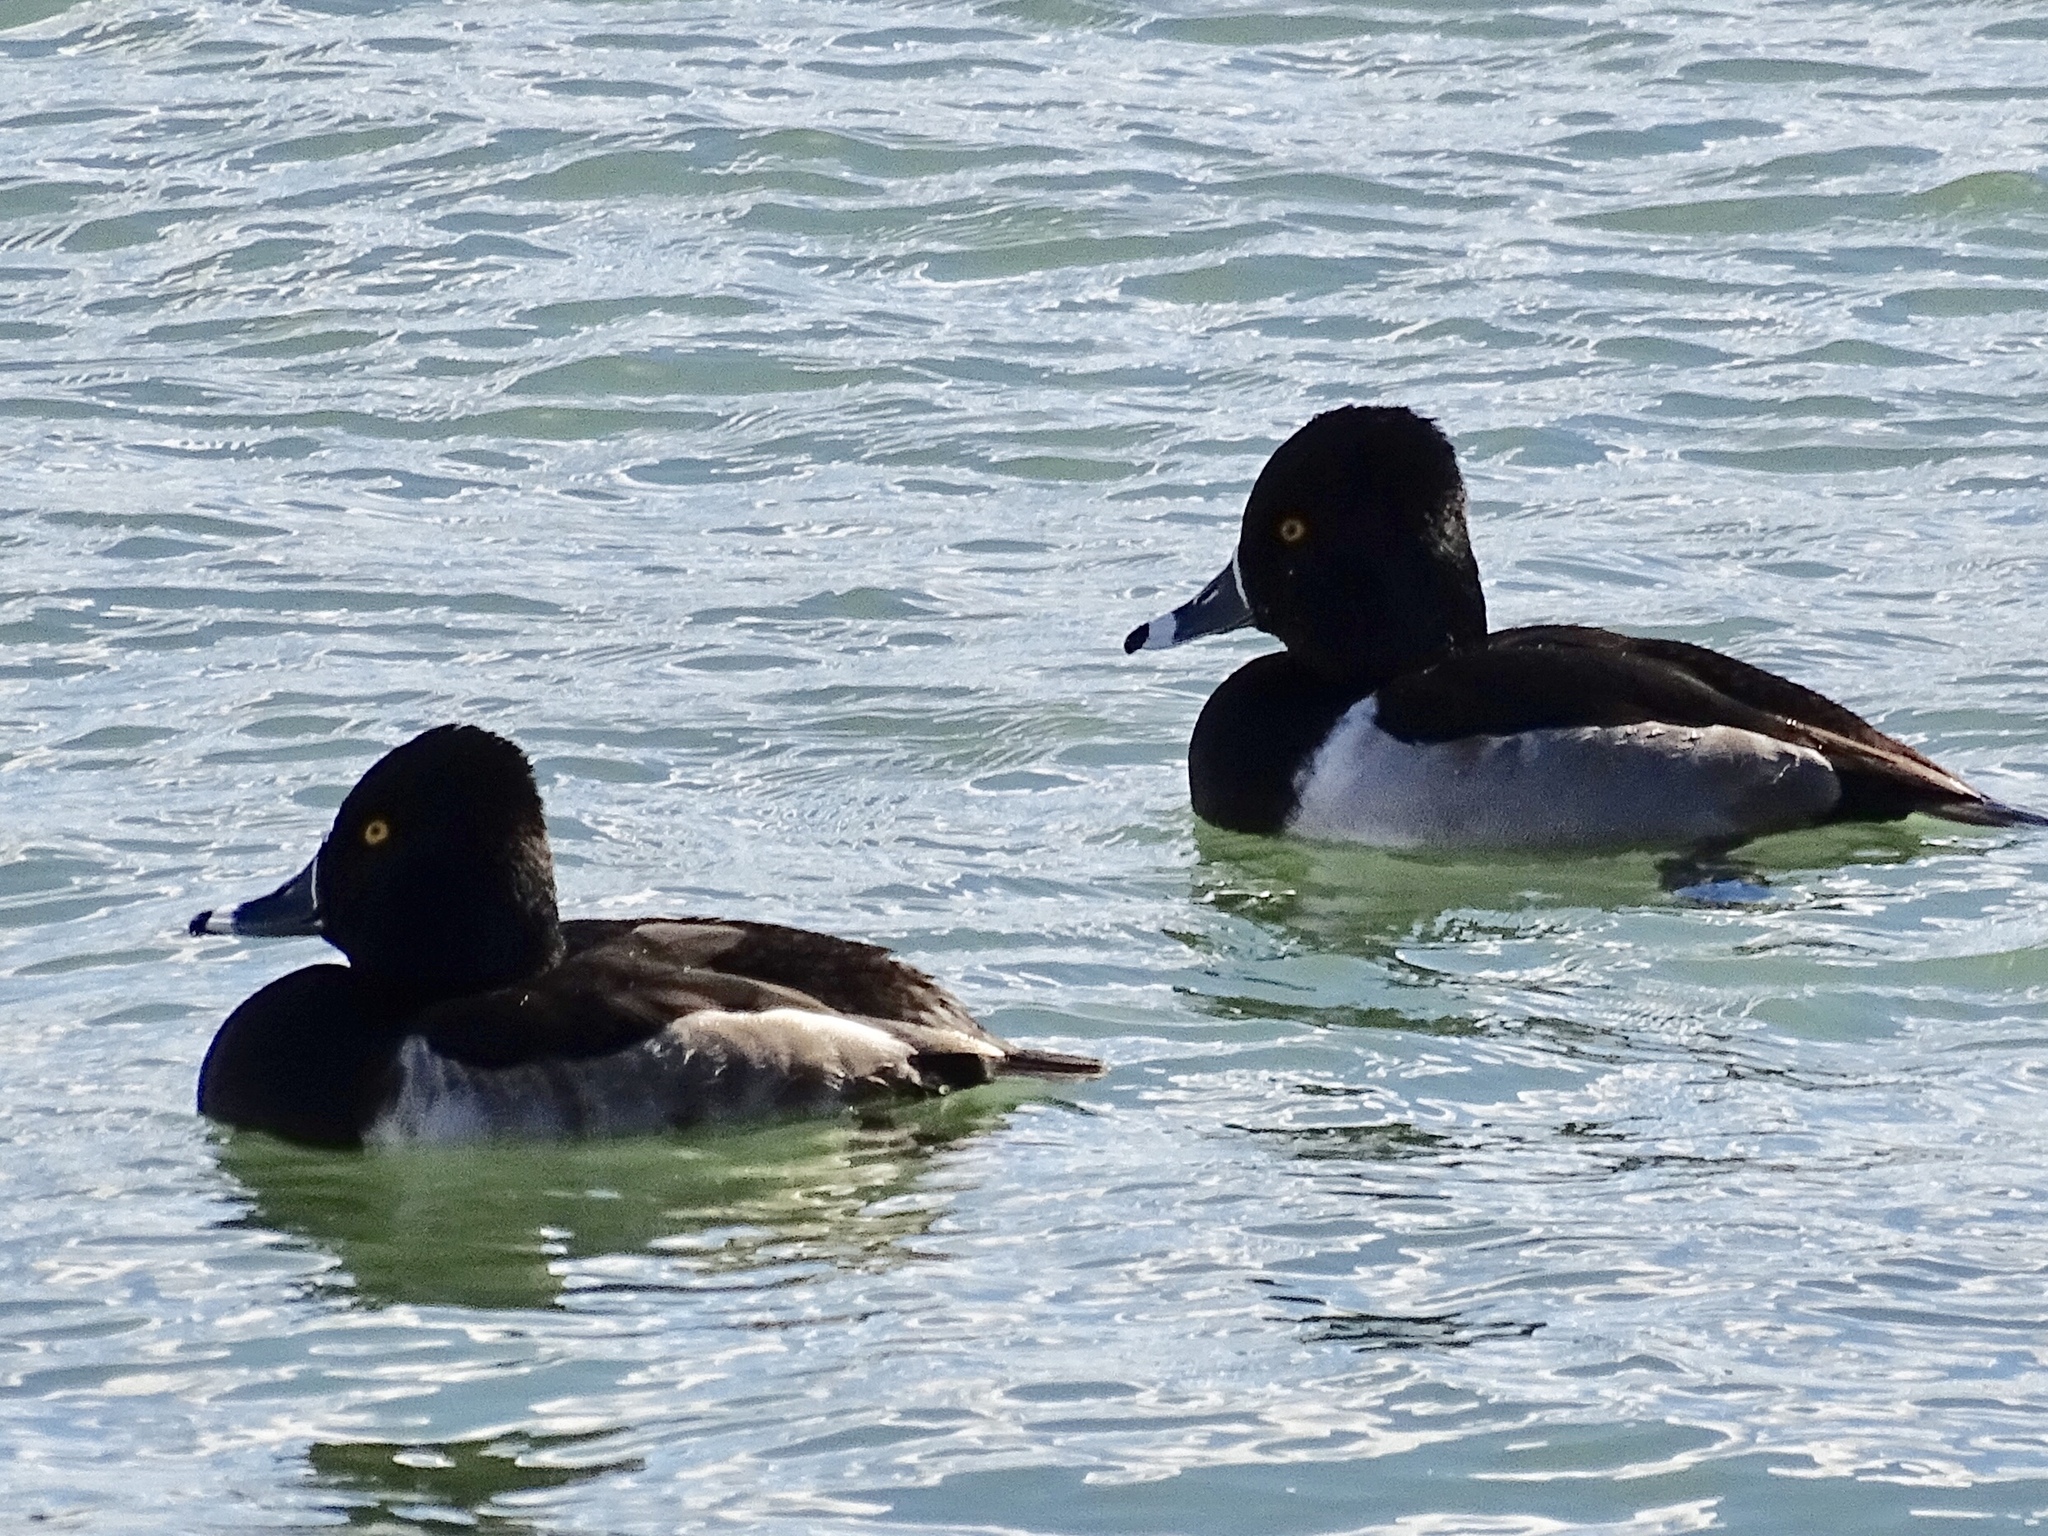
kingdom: Animalia
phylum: Chordata
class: Aves
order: Anseriformes
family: Anatidae
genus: Aythya
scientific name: Aythya collaris
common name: Ring-necked duck
